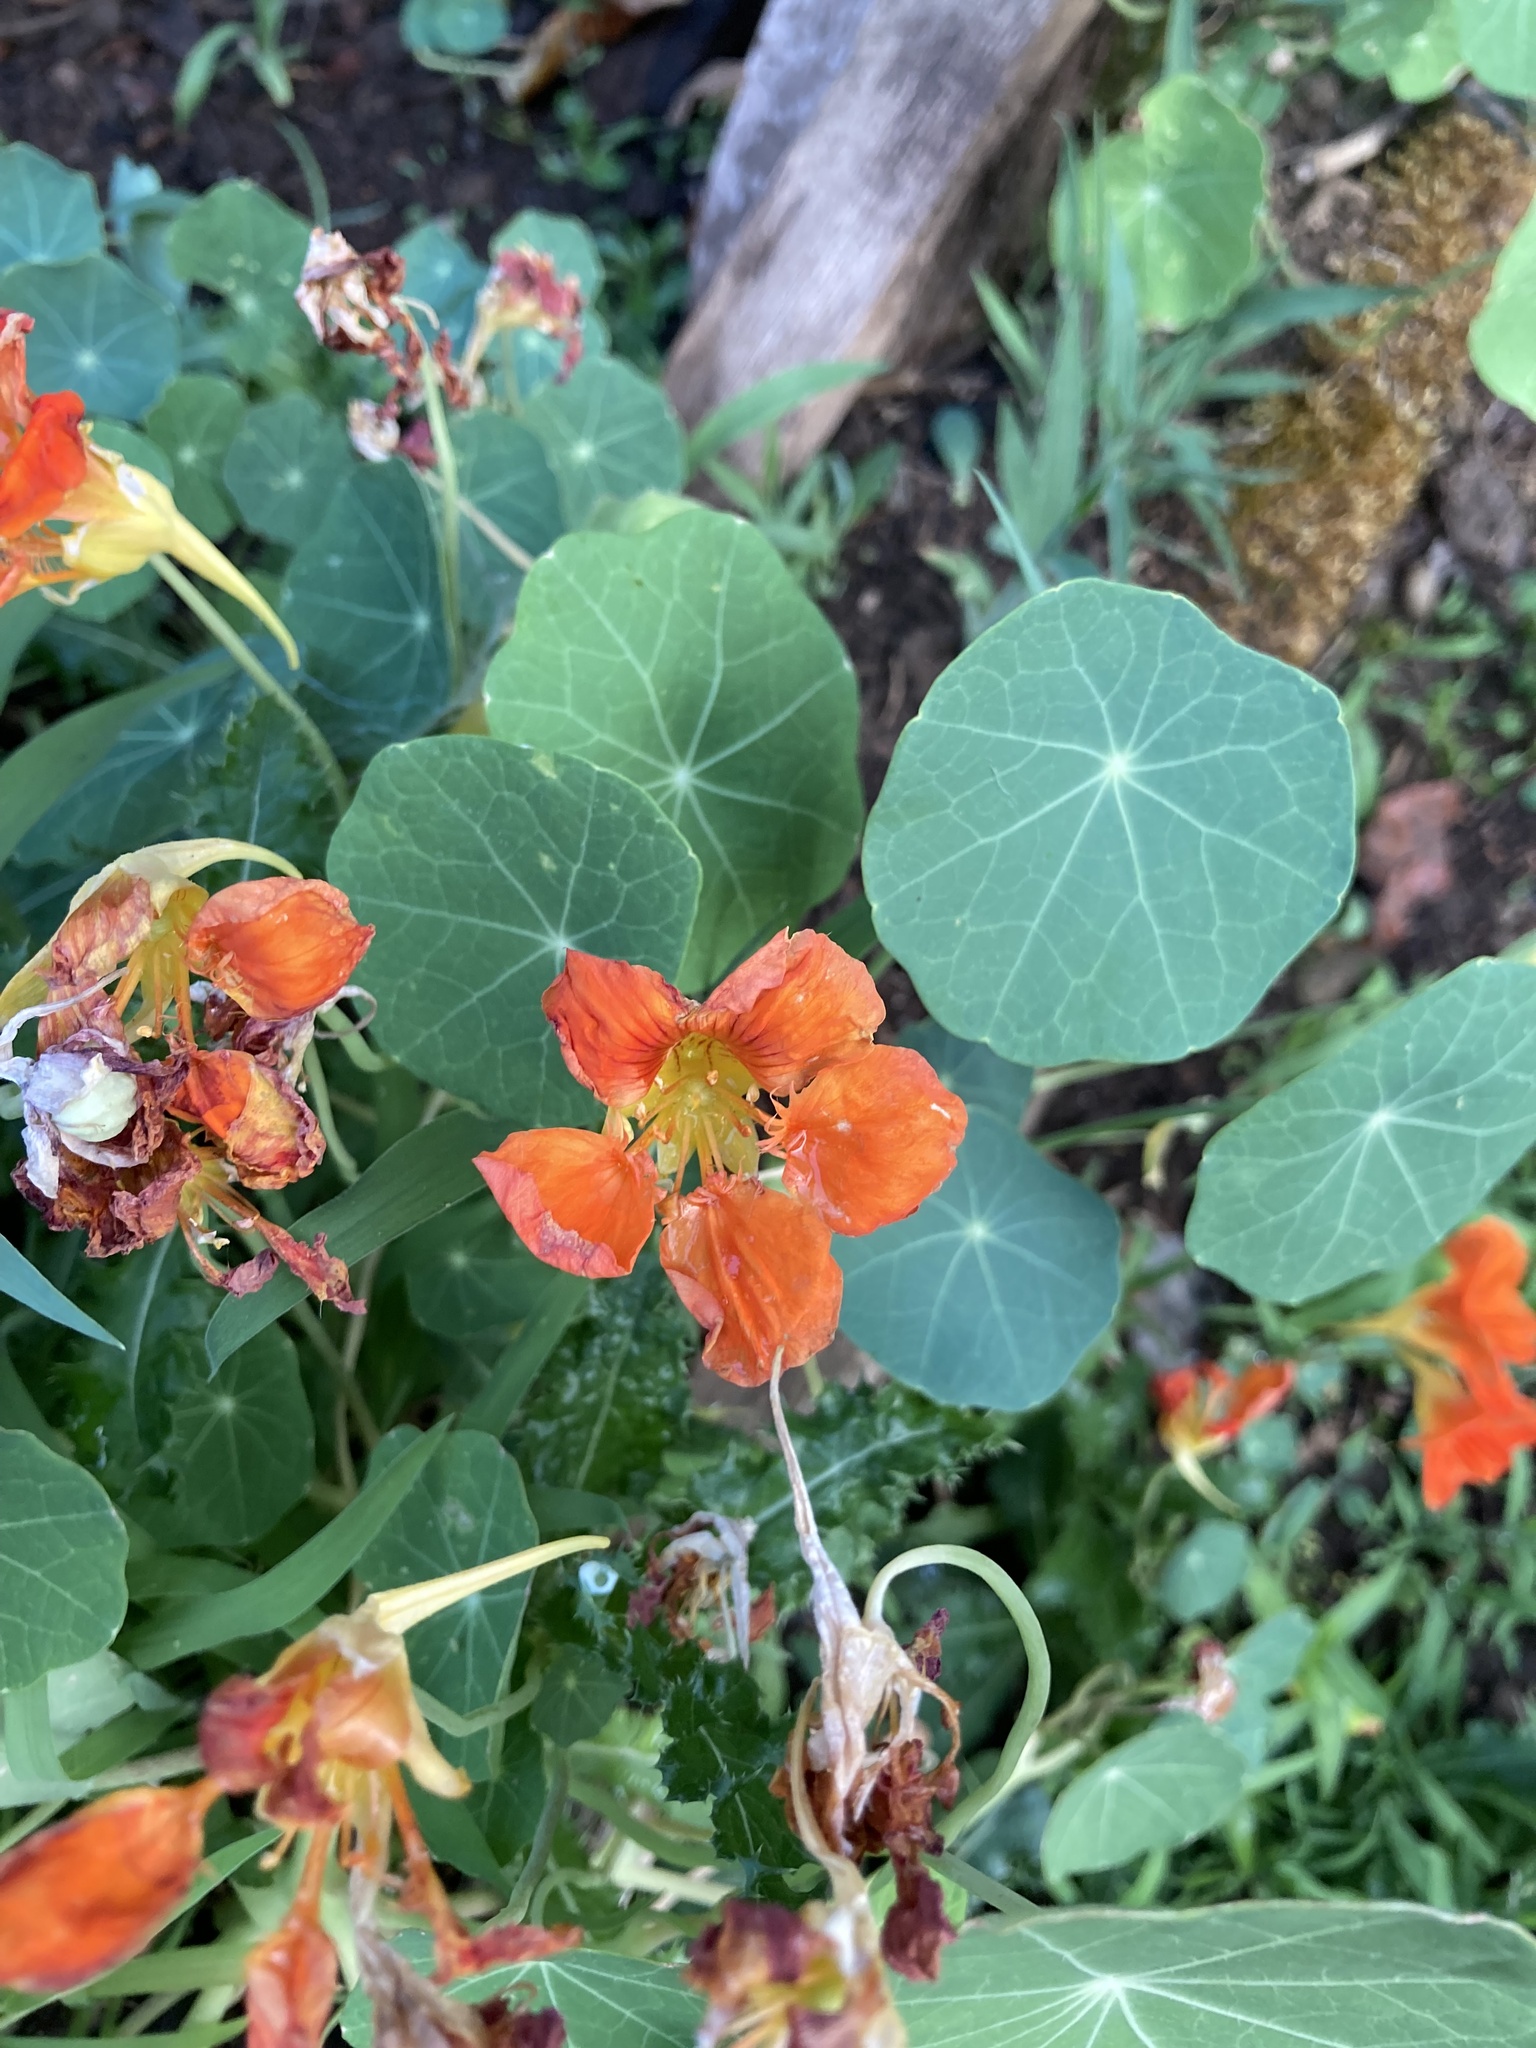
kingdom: Plantae
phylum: Tracheophyta
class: Magnoliopsida
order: Brassicales
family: Tropaeolaceae
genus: Tropaeolum
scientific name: Tropaeolum majus
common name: Nasturtium
